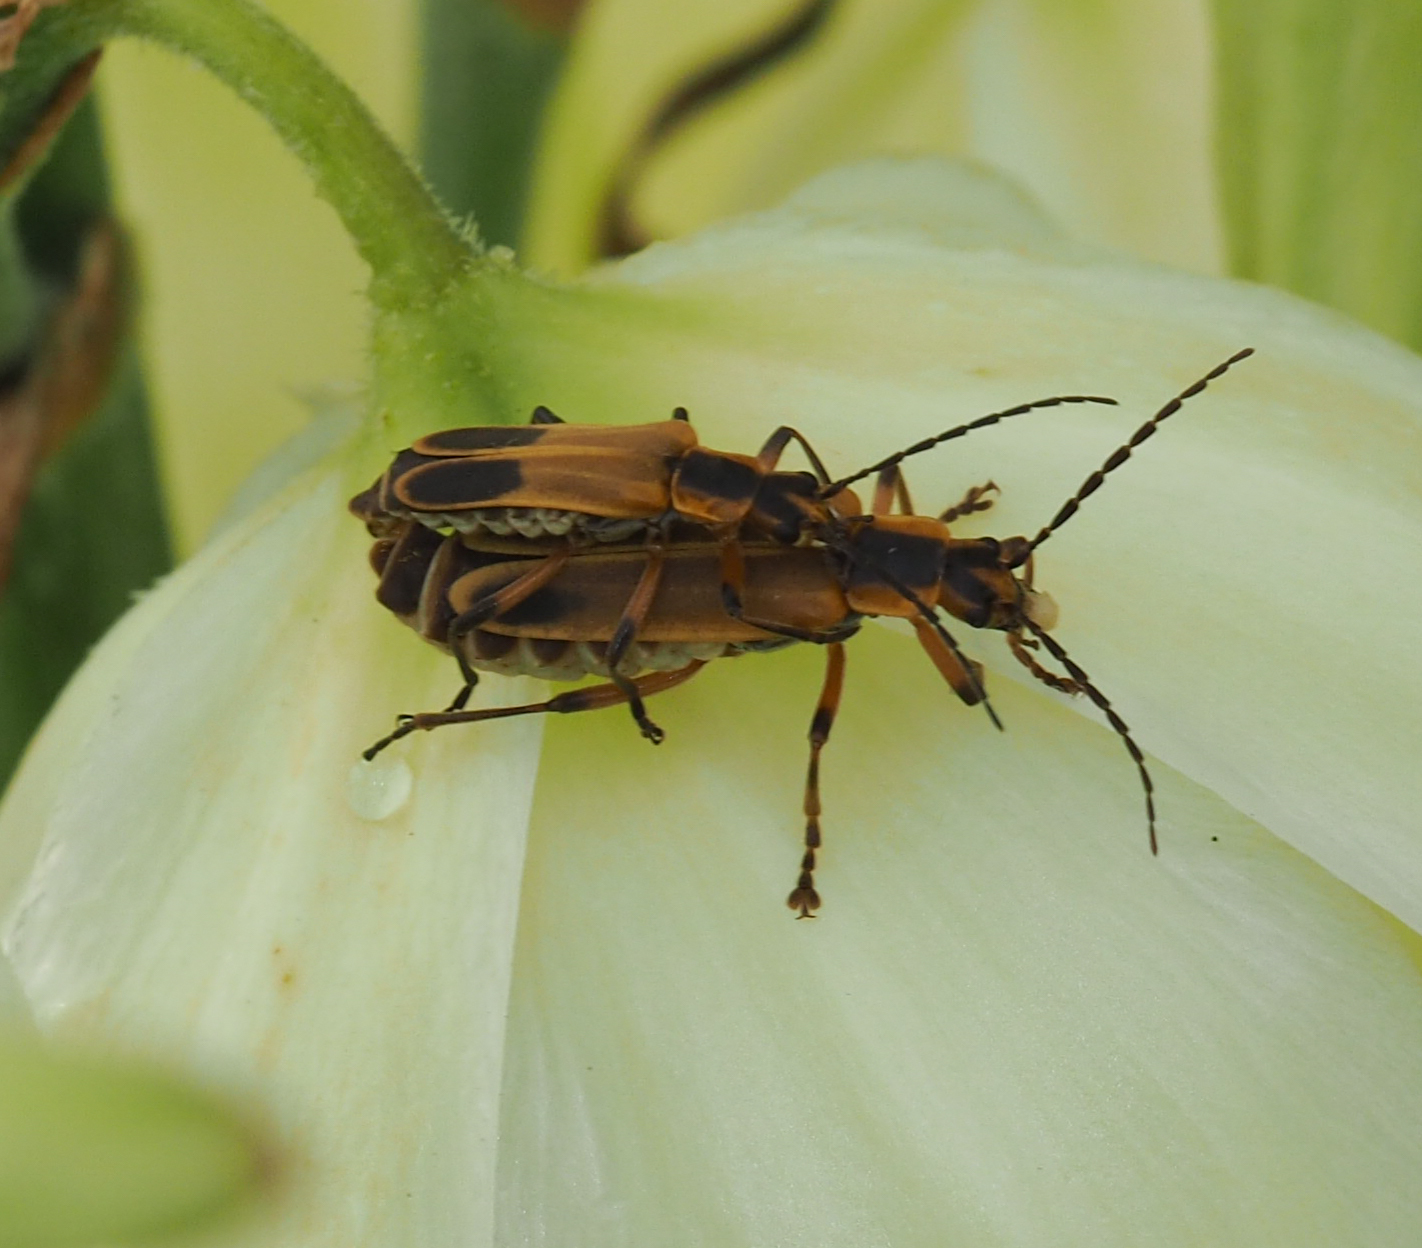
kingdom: Animalia
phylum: Arthropoda
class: Insecta
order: Coleoptera
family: Cantharidae
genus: Chauliognathus
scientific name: Chauliognathus marginatus
